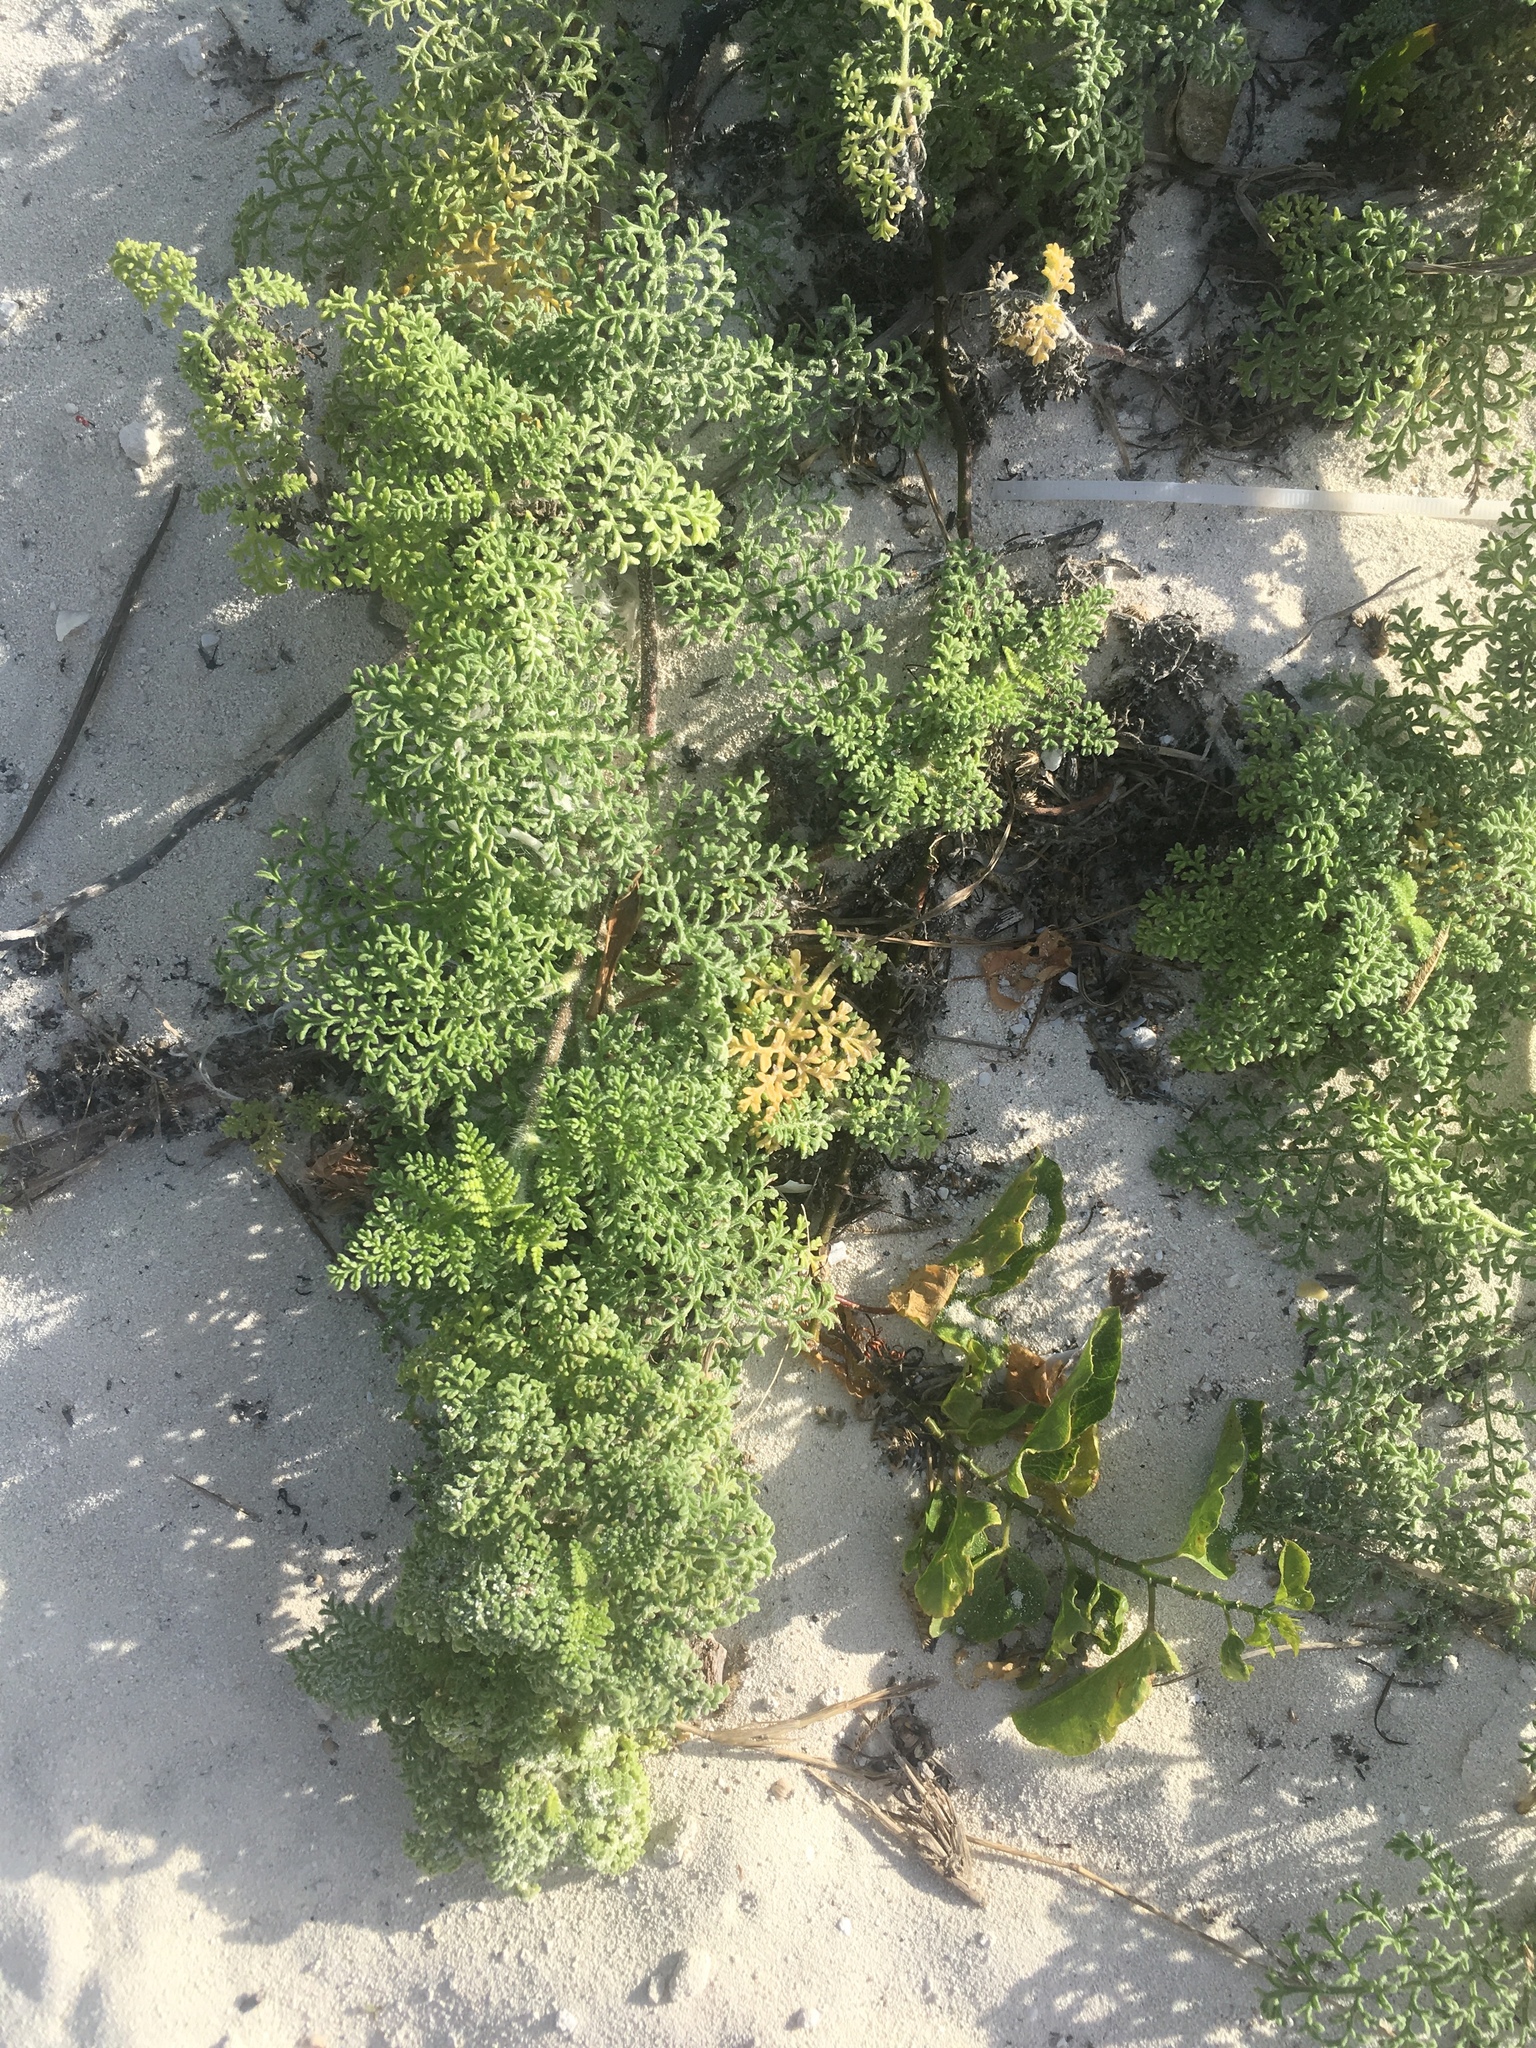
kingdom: Plantae
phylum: Tracheophyta
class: Magnoliopsida
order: Asterales
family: Asteraceae
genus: Ambrosia
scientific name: Ambrosia hispida
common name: Coastal ragweed
